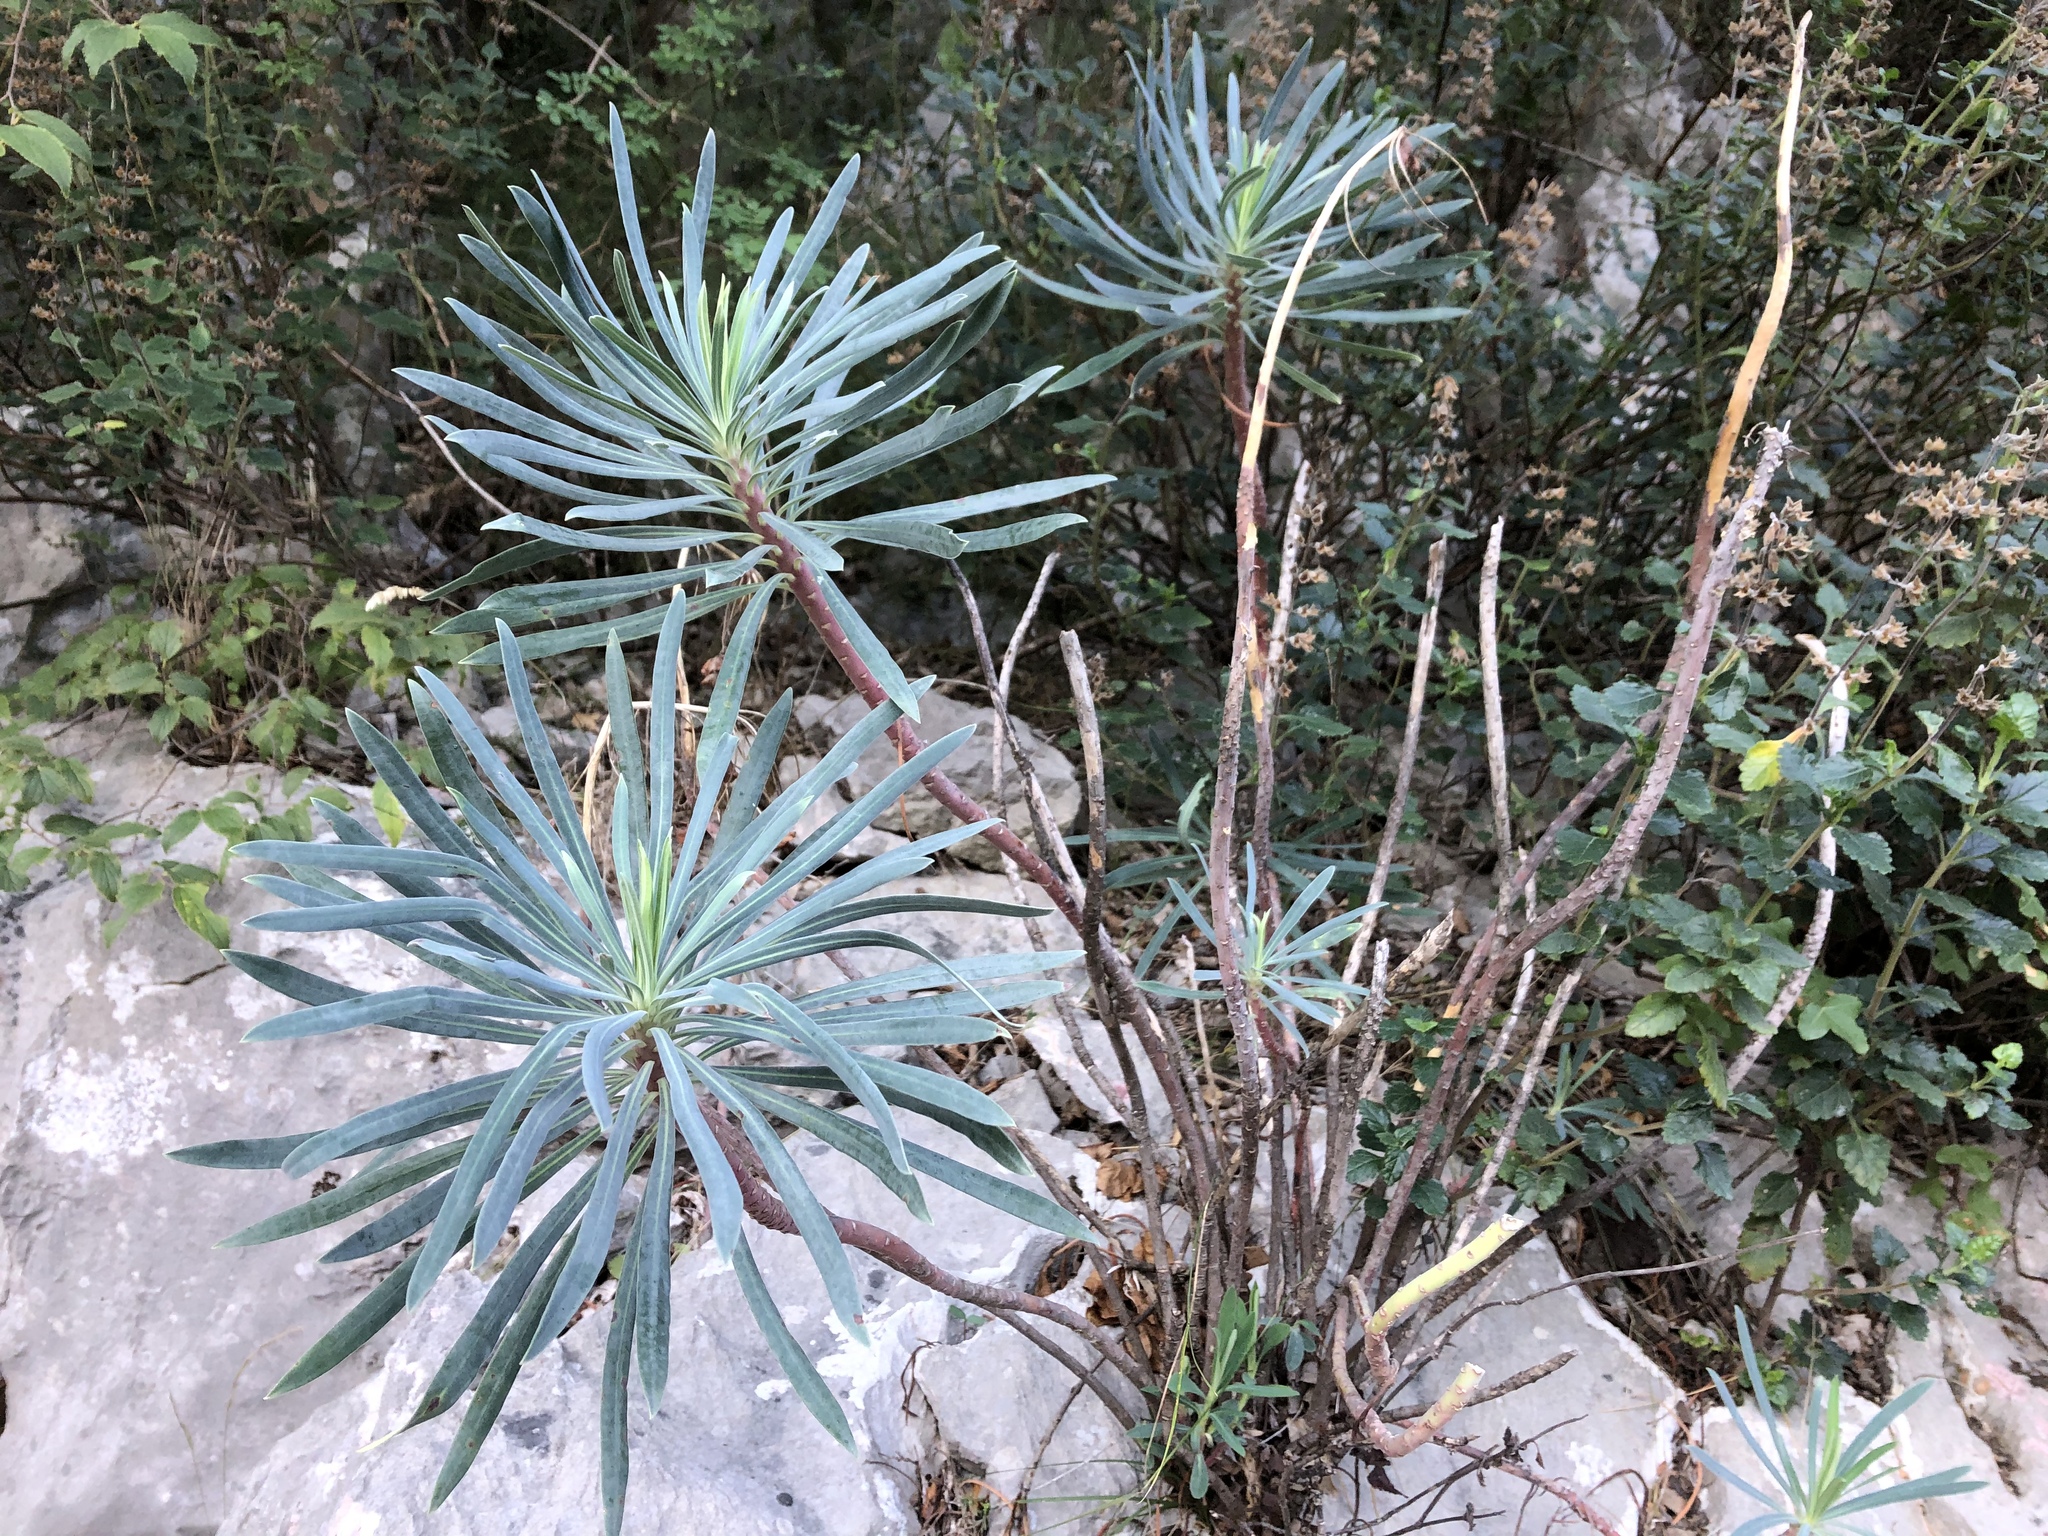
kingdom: Plantae
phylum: Tracheophyta
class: Magnoliopsida
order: Malpighiales
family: Euphorbiaceae
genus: Euphorbia
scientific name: Euphorbia characias
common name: Mediterranean spurge
